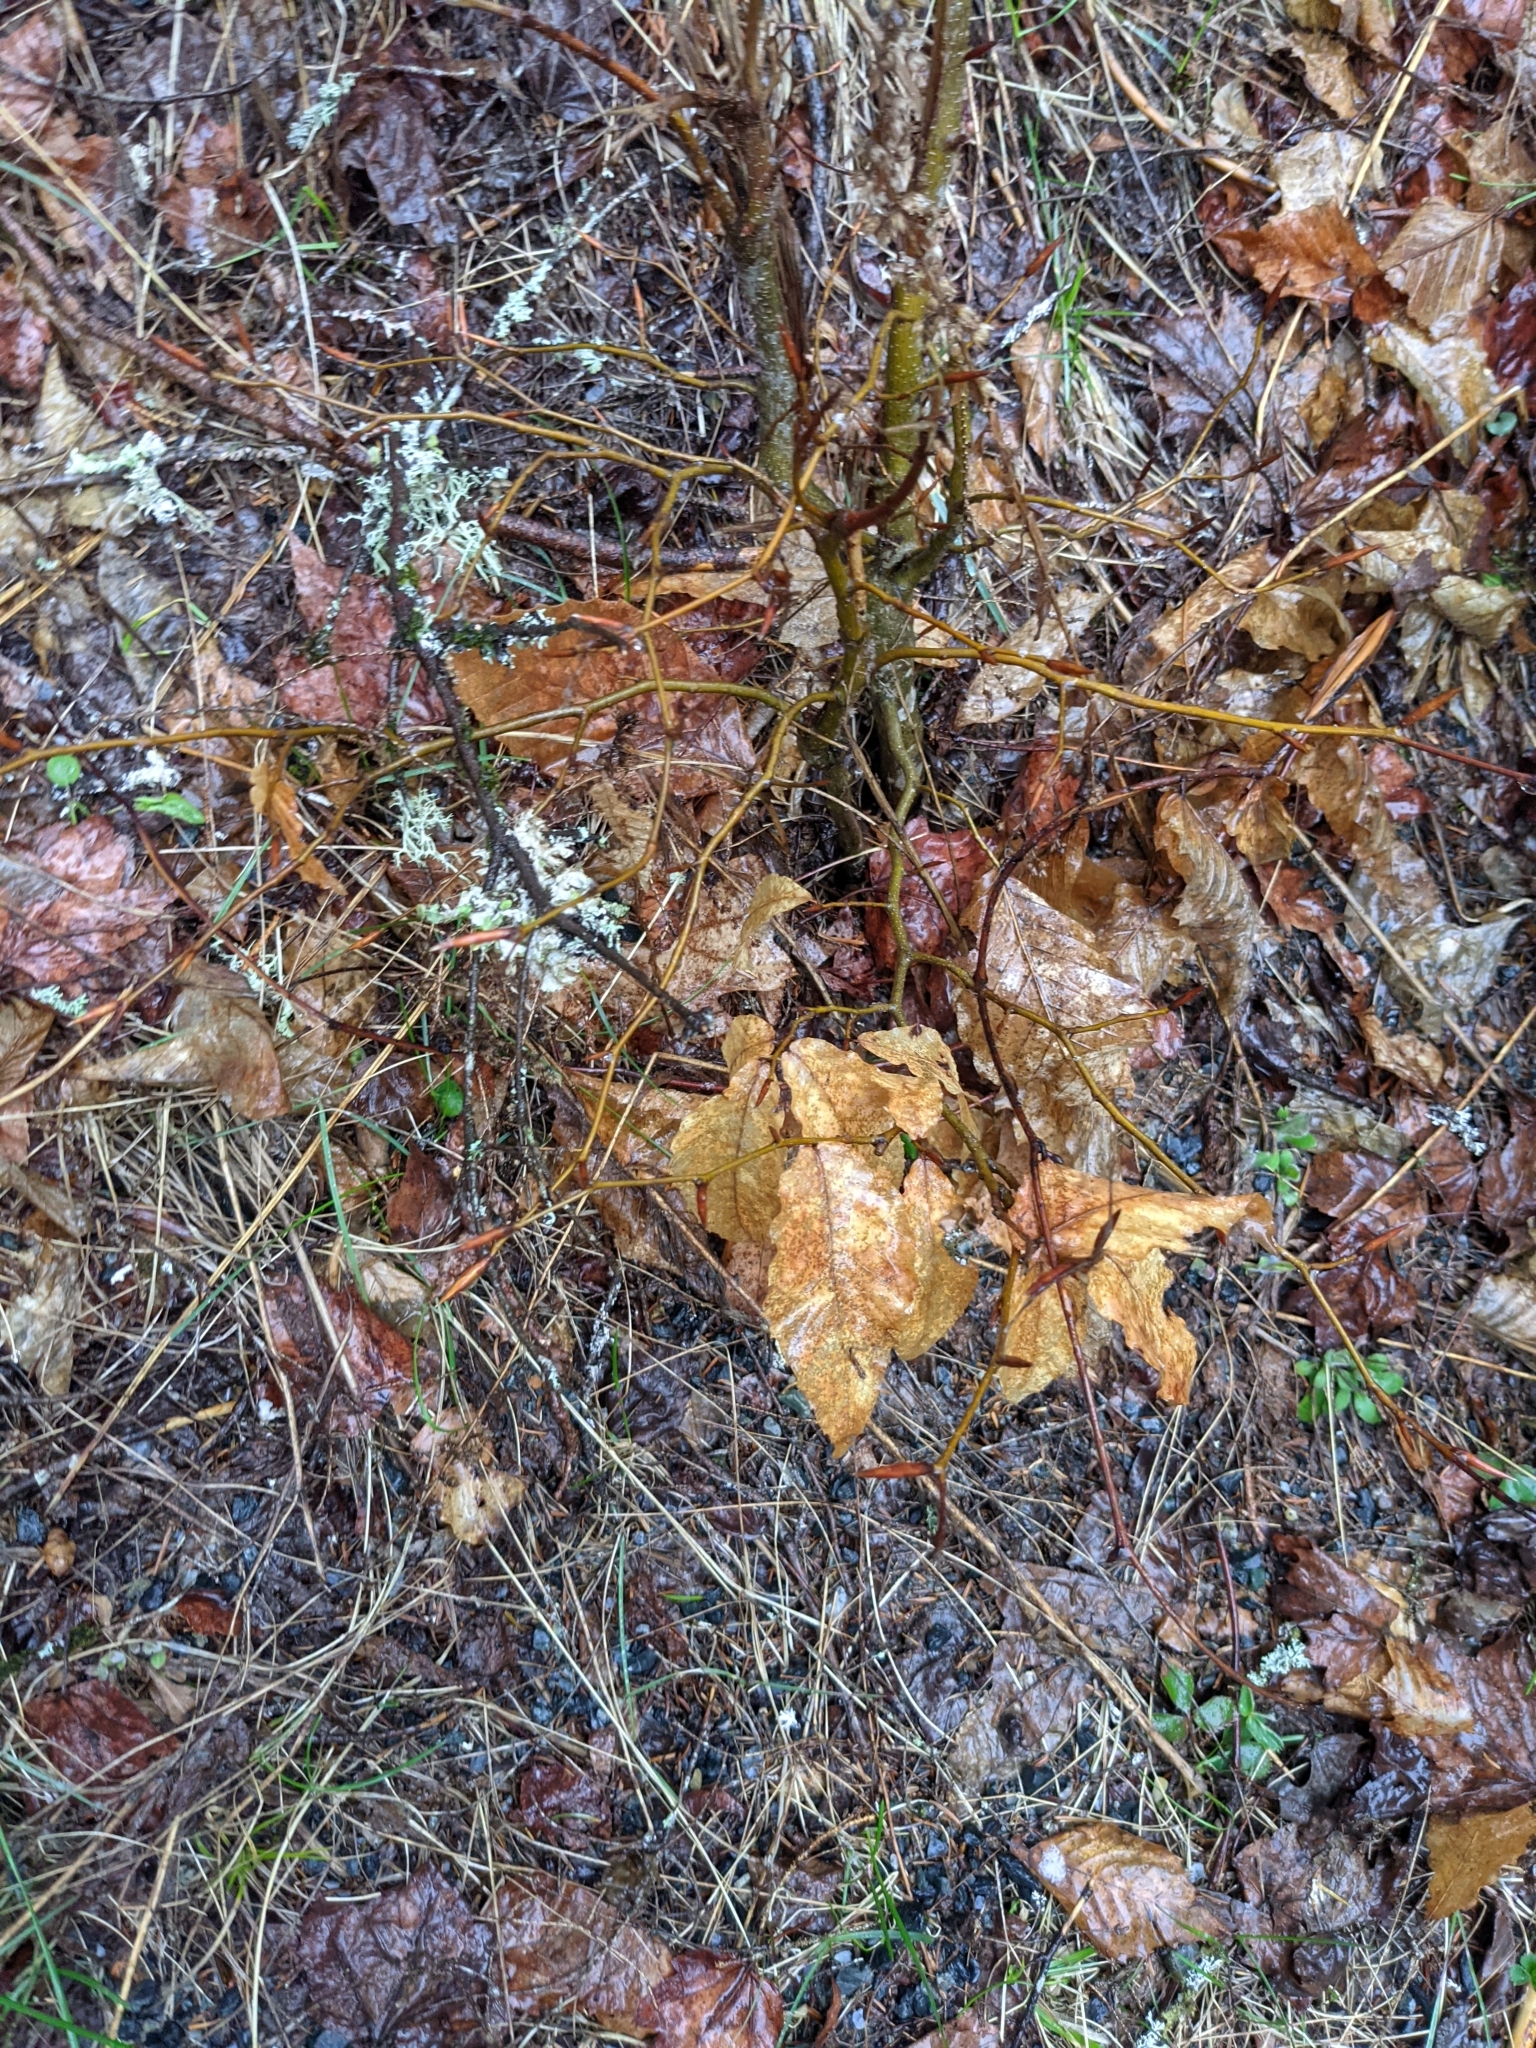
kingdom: Plantae
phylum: Tracheophyta
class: Magnoliopsida
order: Fagales
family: Fagaceae
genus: Fagus
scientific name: Fagus grandifolia
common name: American beech
